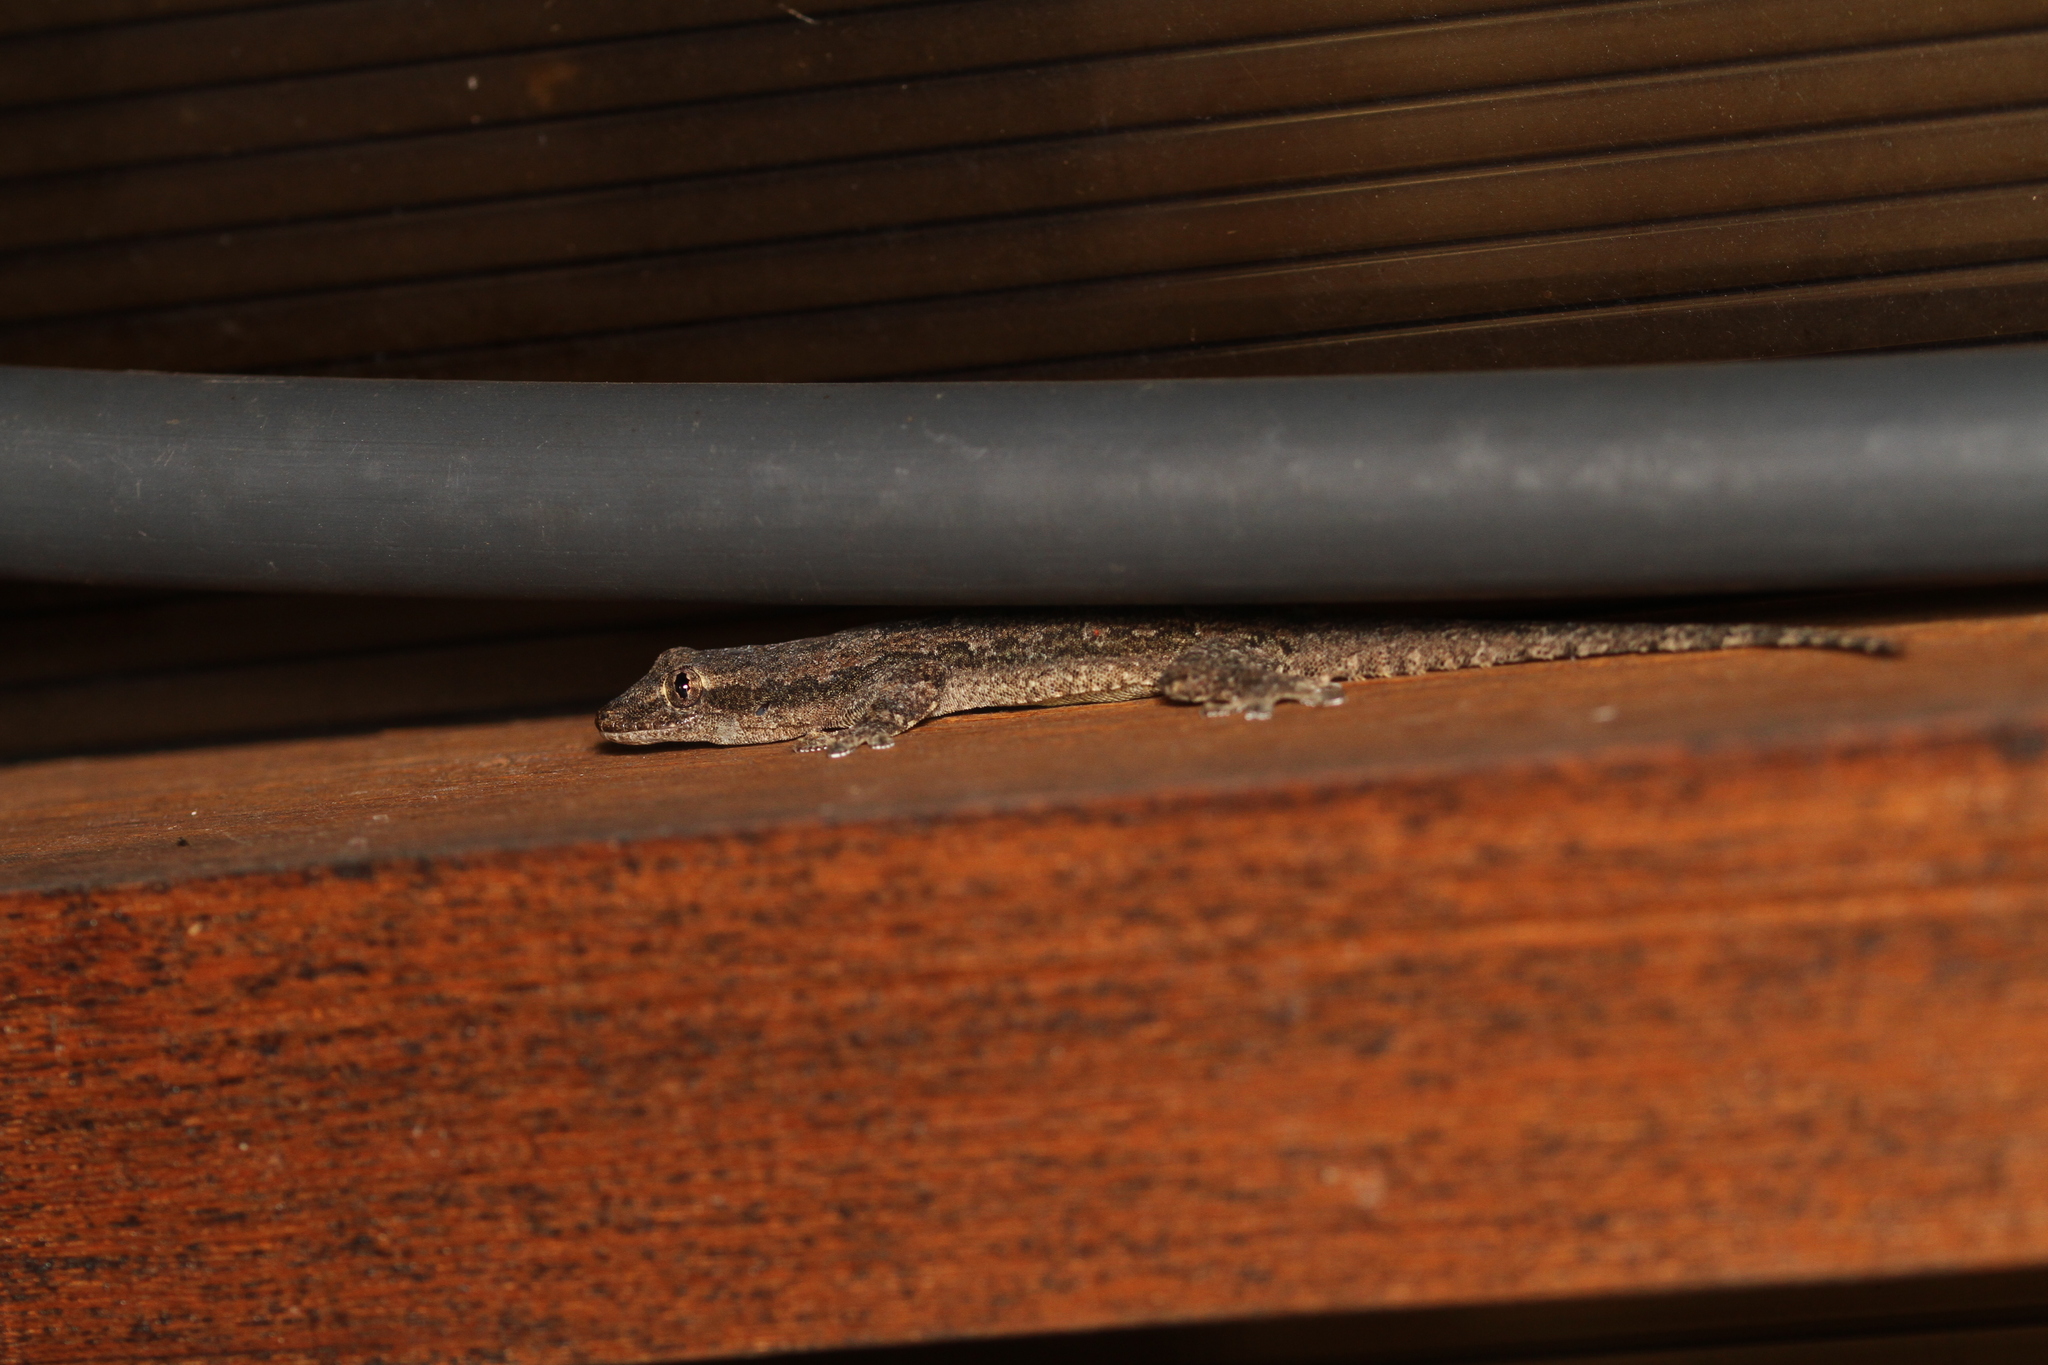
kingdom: Animalia
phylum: Chordata
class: Squamata
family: Gekkonidae
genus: Hemidactylus
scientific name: Hemidactylus platyurus
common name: Flat-tailed house gecko
